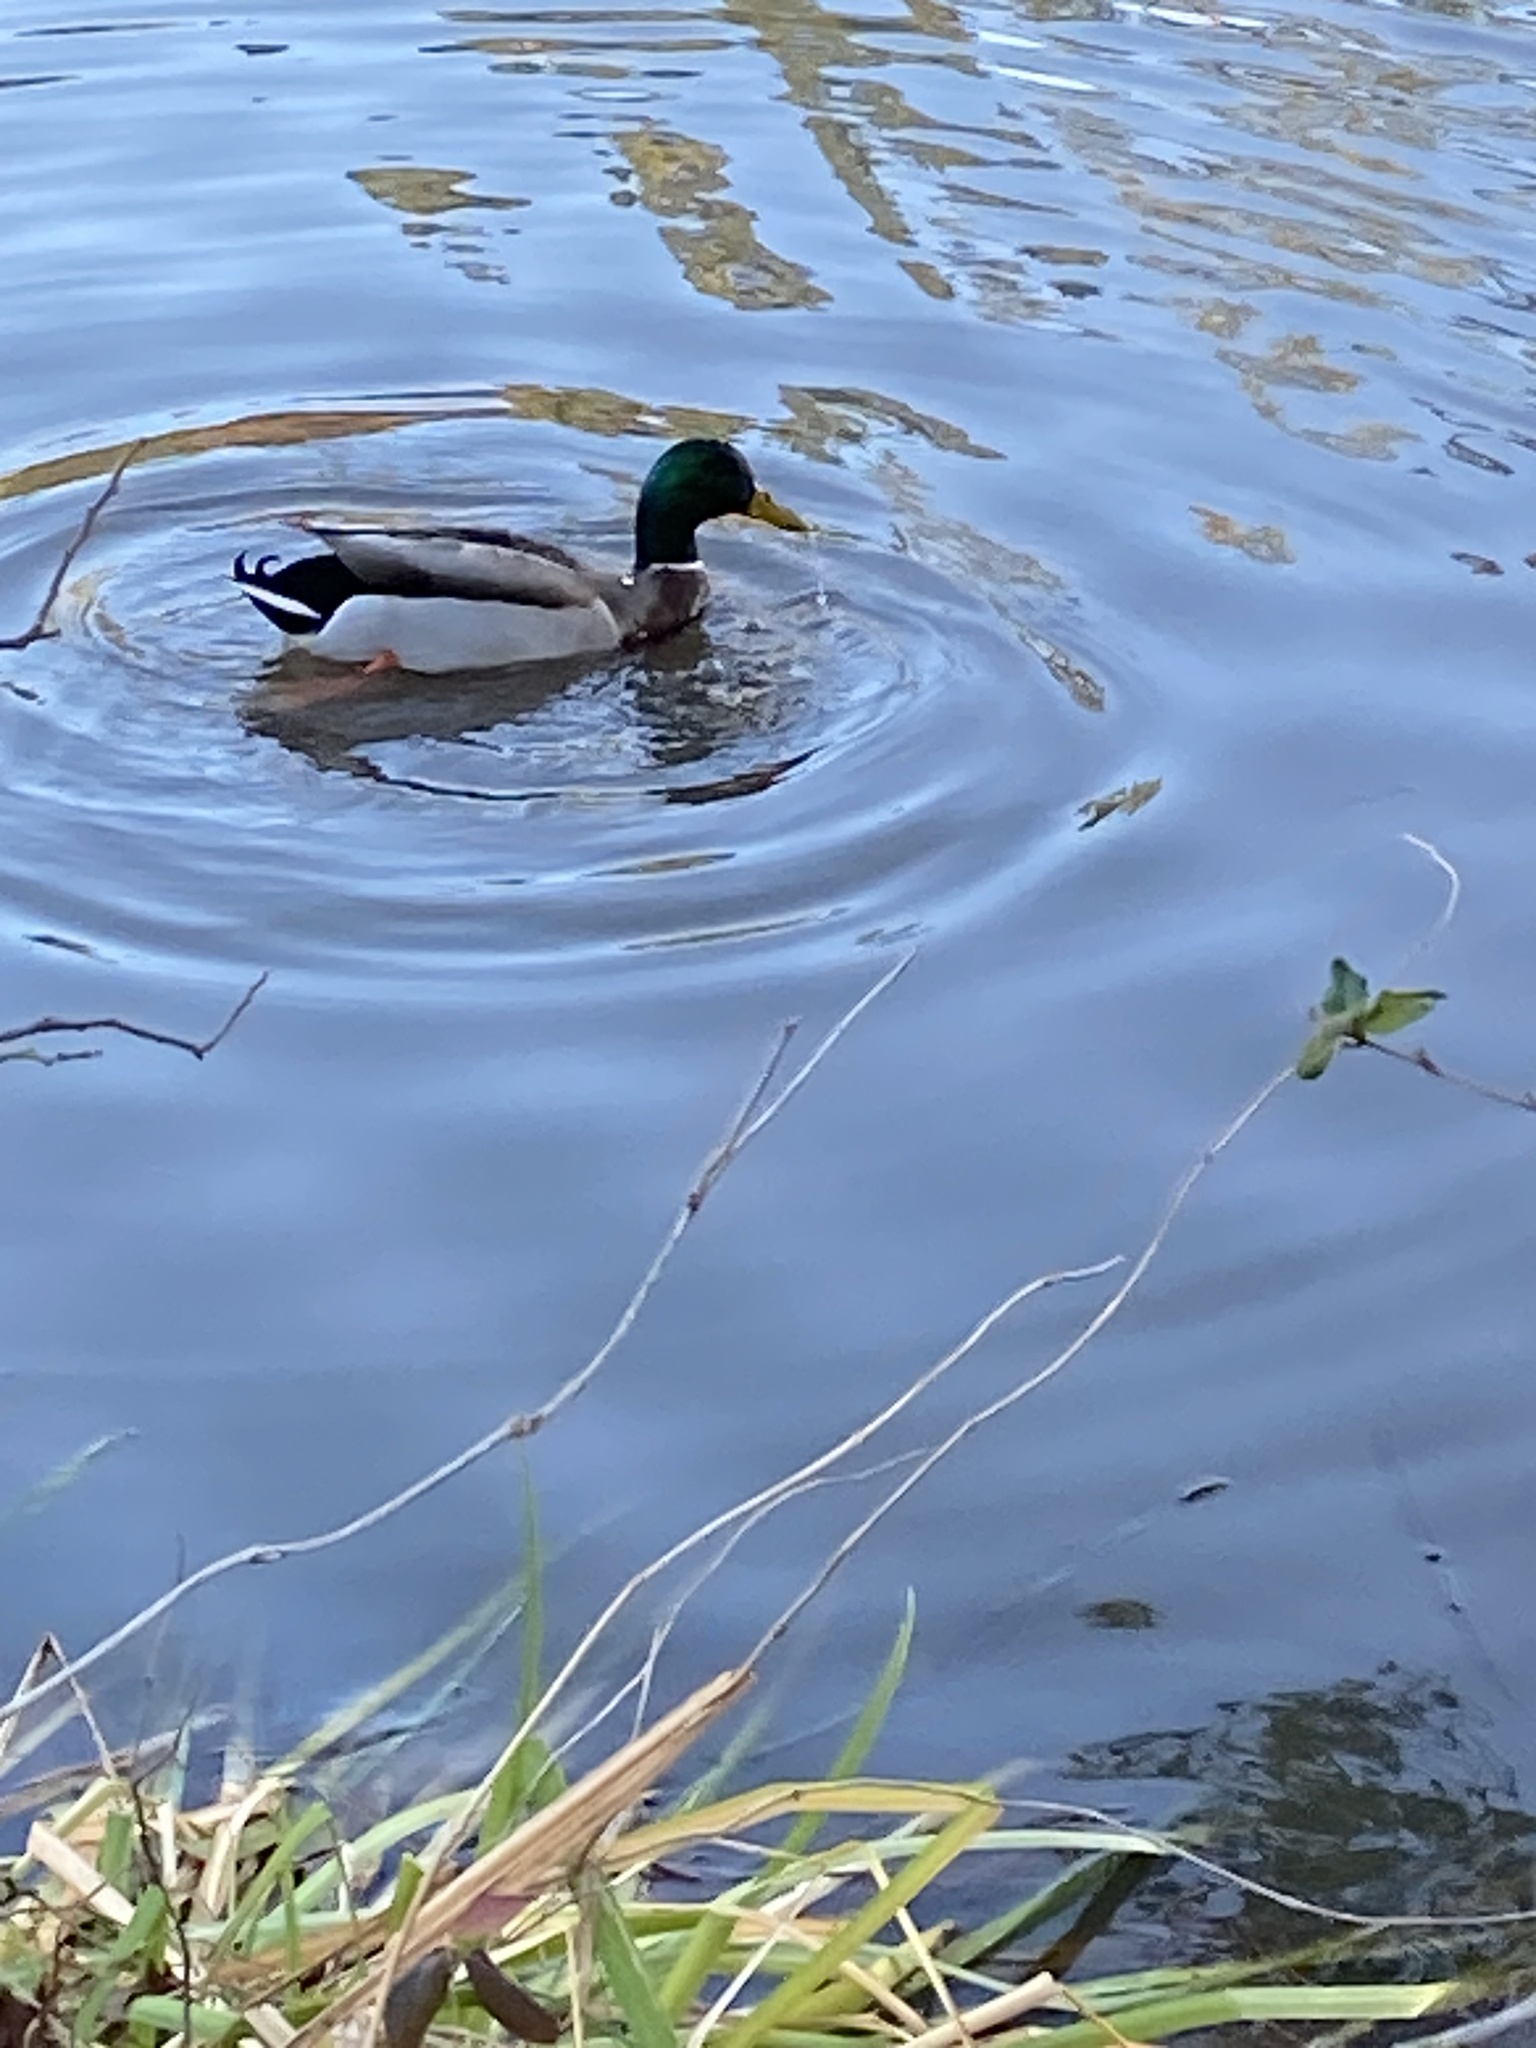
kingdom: Animalia
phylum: Chordata
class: Aves
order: Anseriformes
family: Anatidae
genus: Anas
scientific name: Anas platyrhynchos
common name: Mallard
